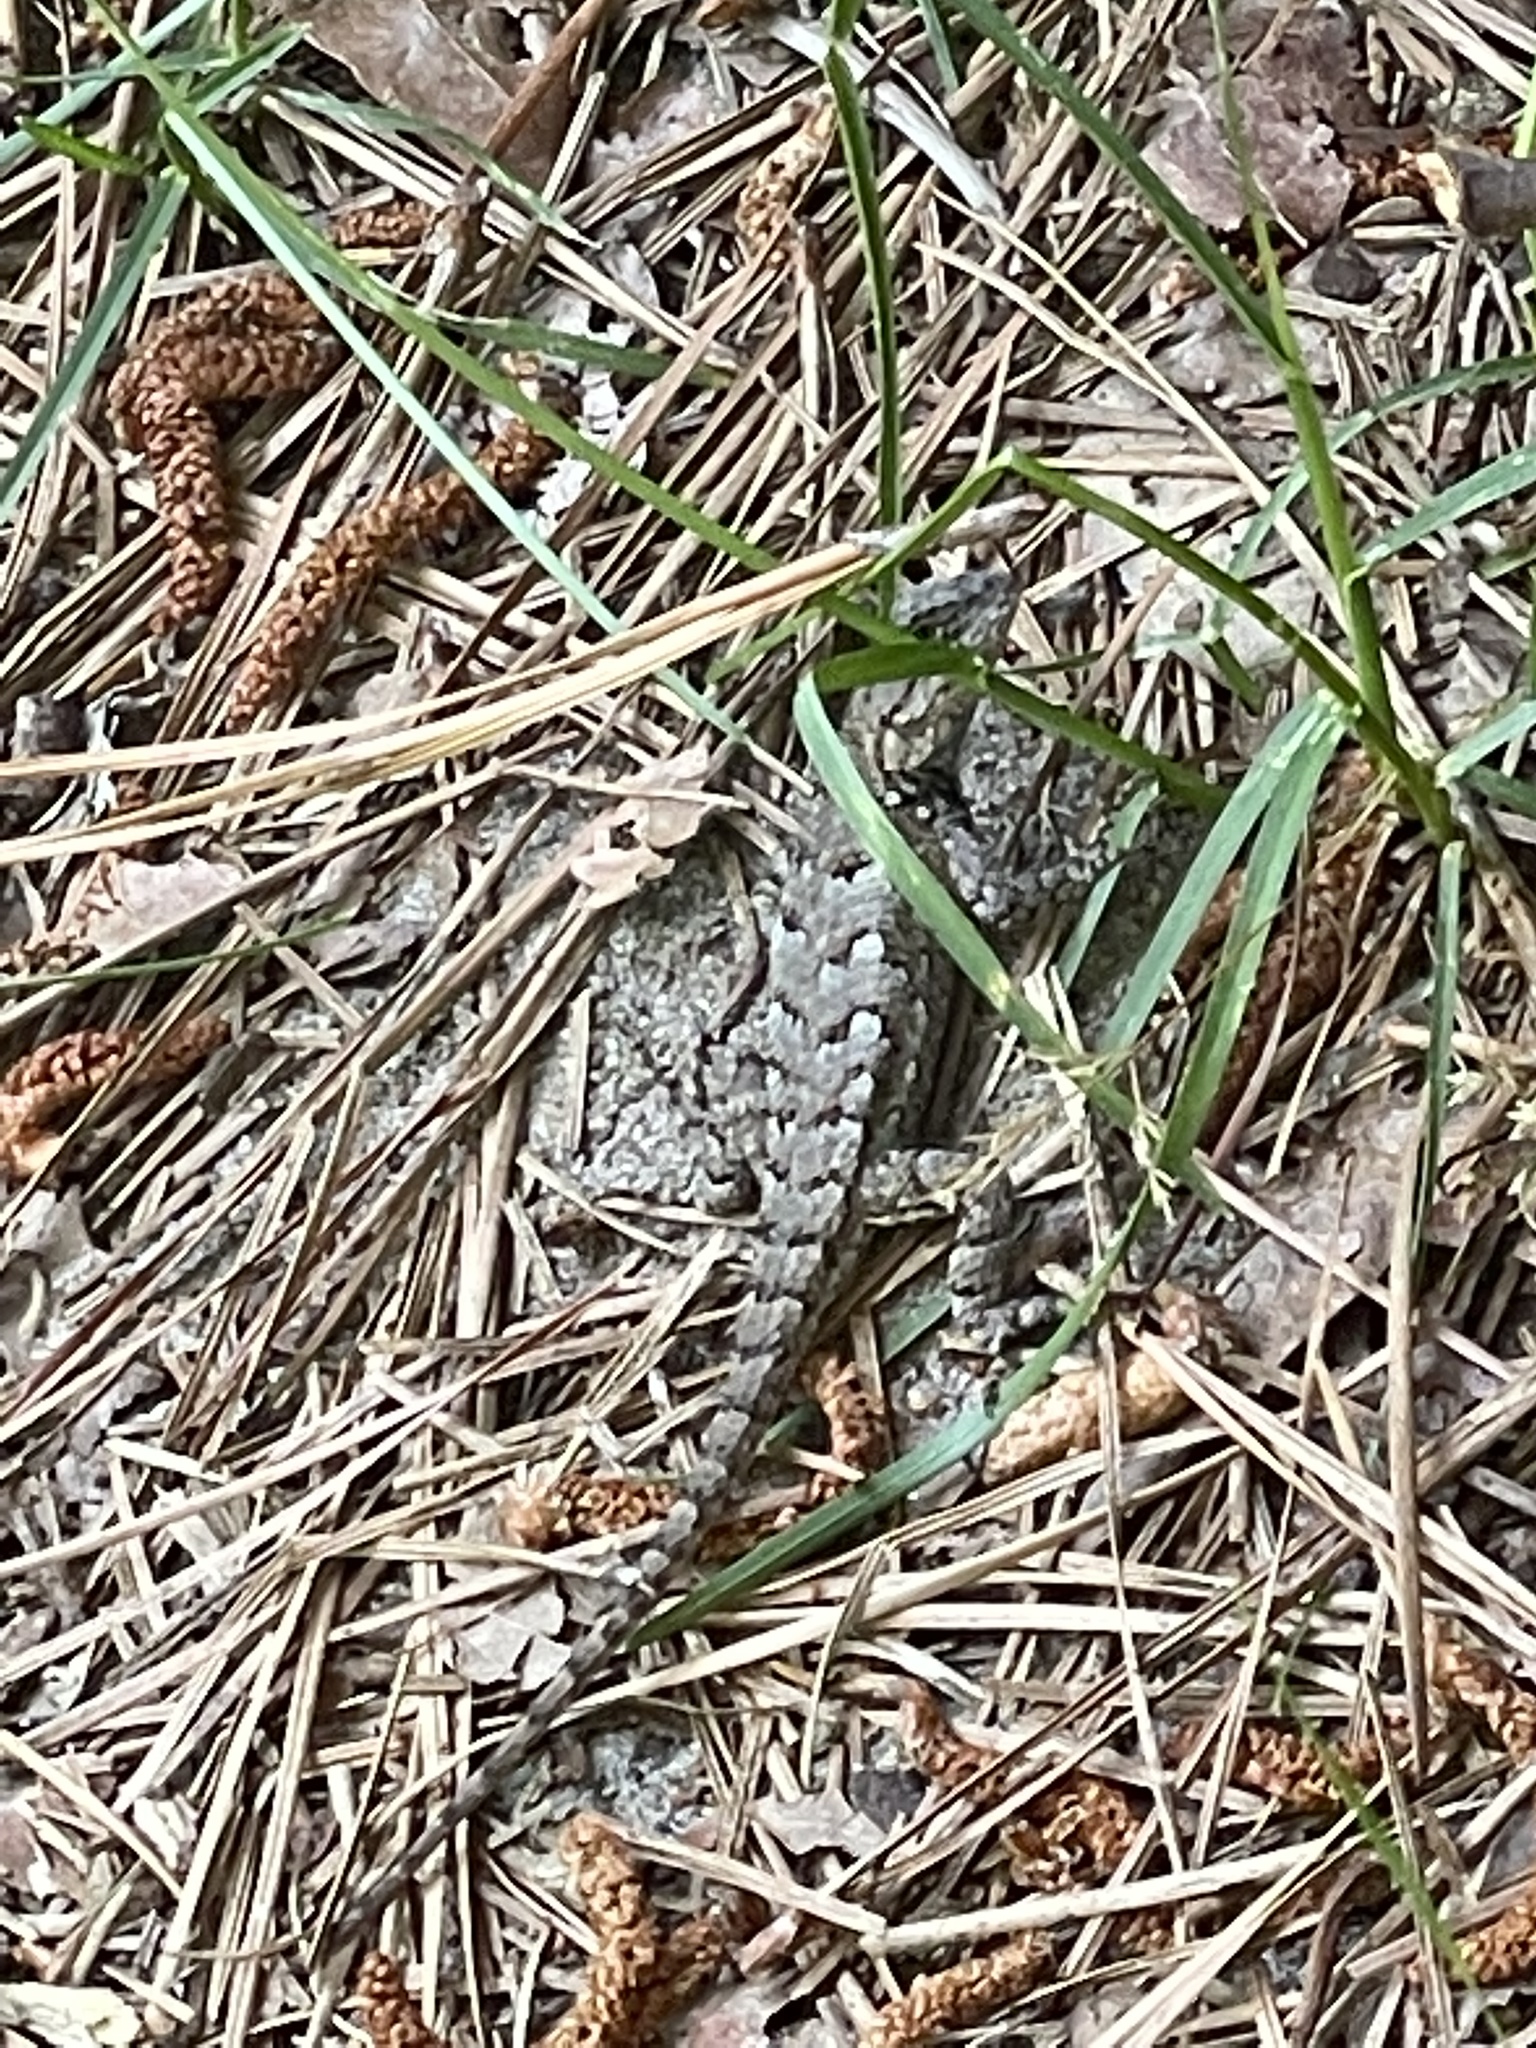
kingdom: Animalia
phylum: Chordata
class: Squamata
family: Phrynosomatidae
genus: Sceloporus
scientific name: Sceloporus undulatus
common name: Eastern fence lizard
